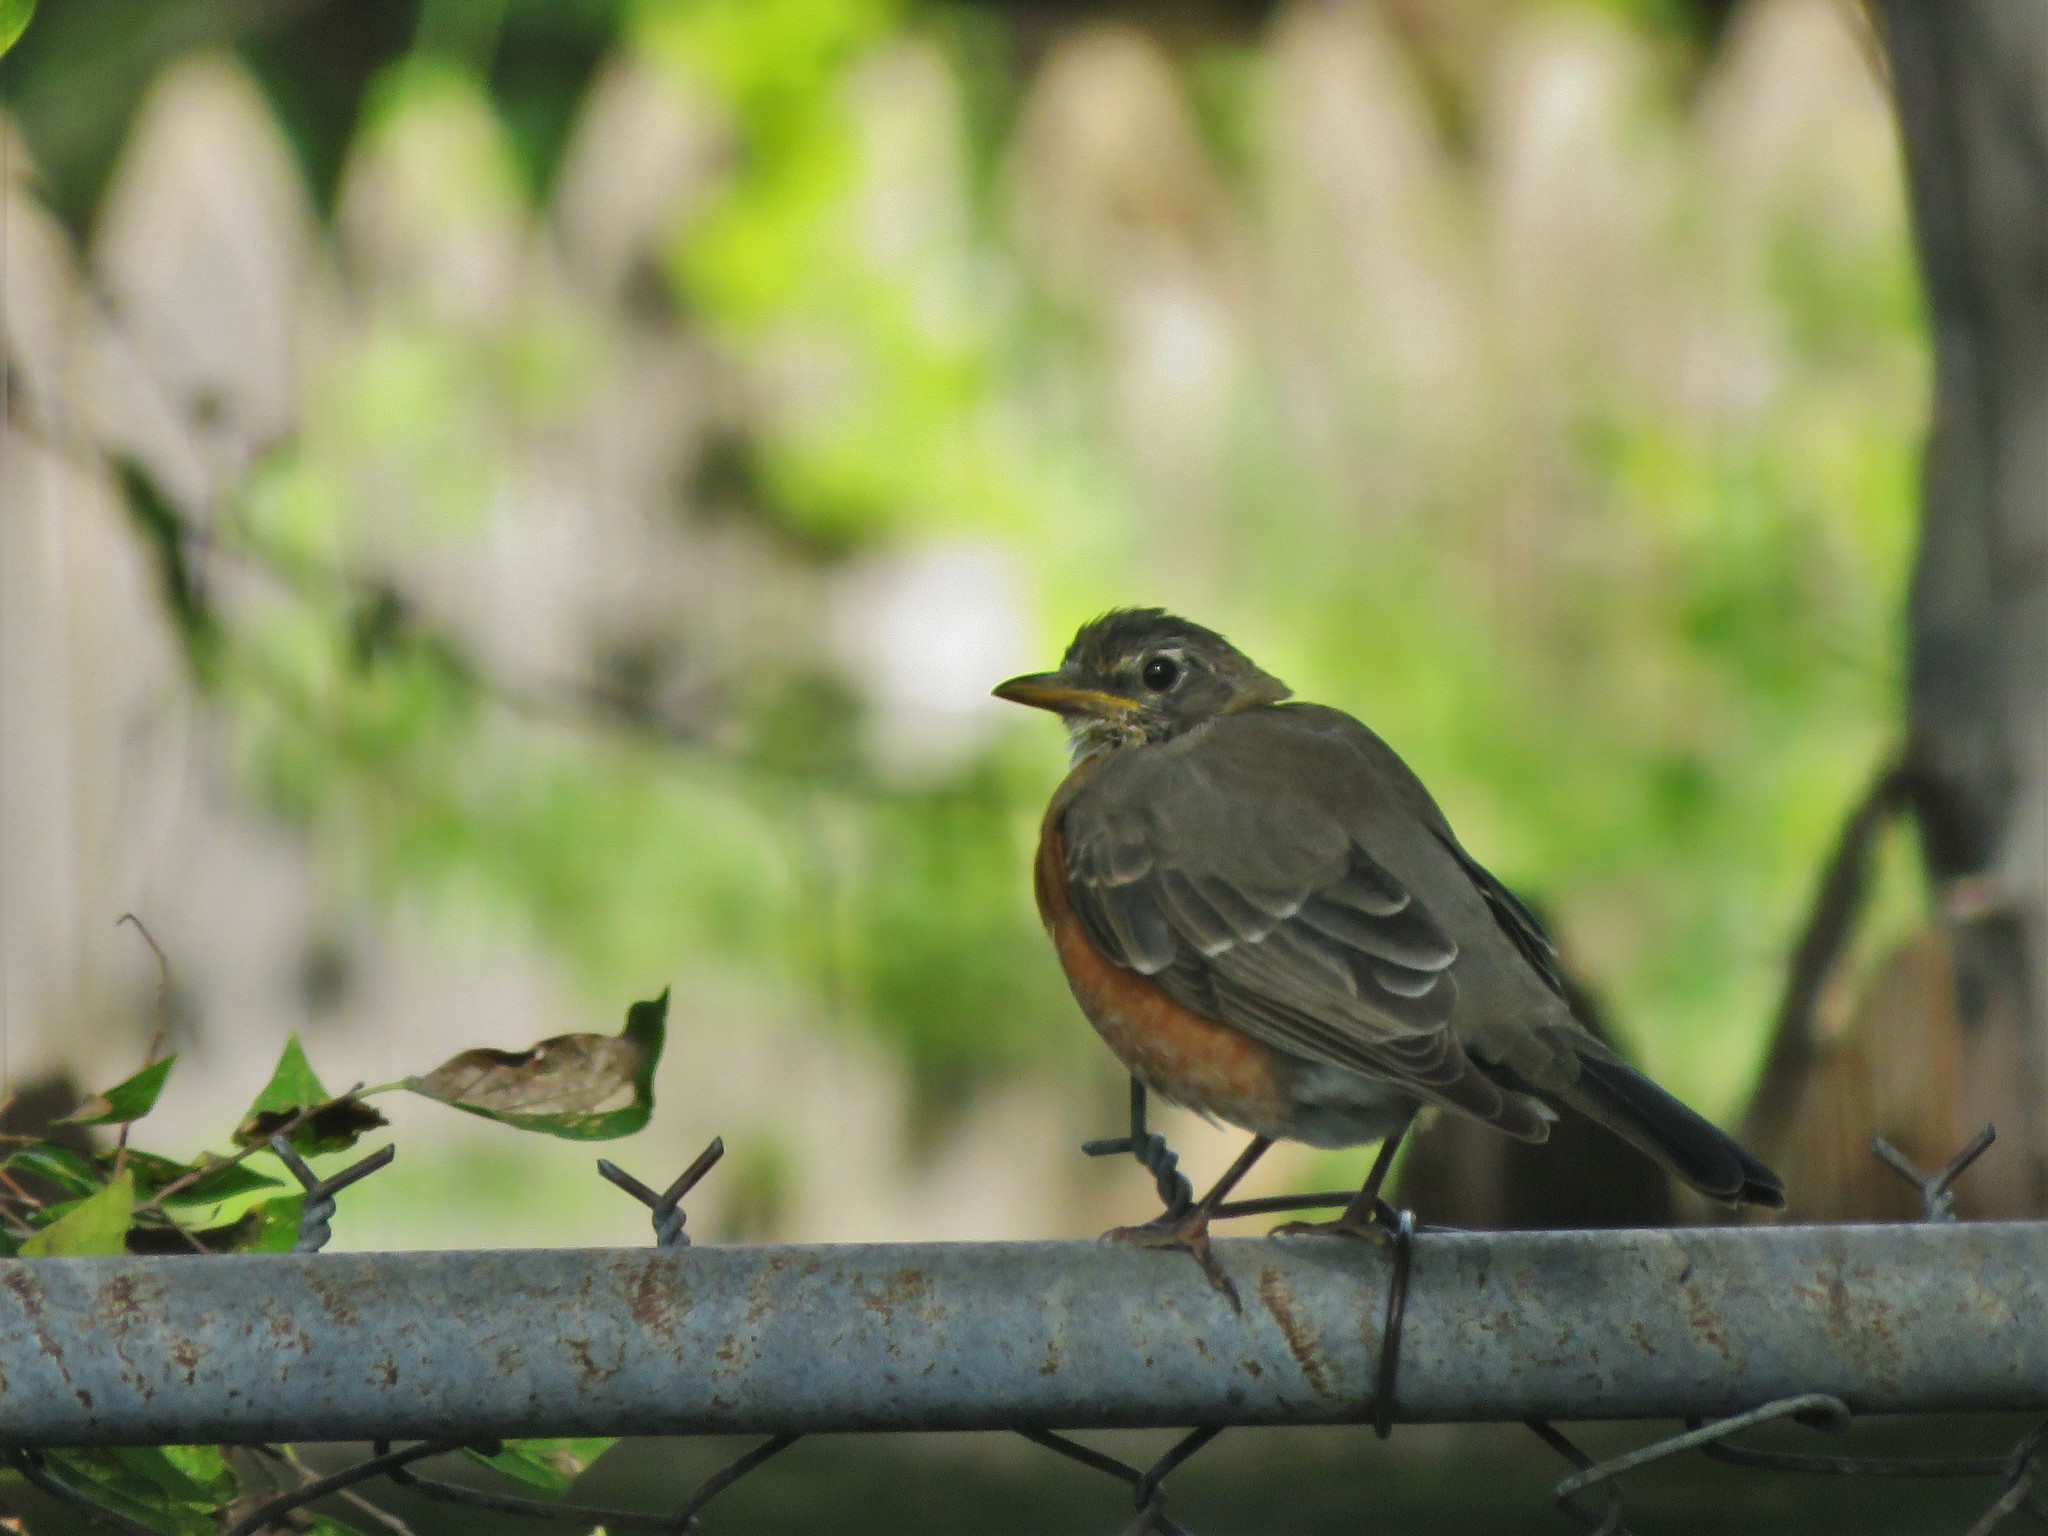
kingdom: Animalia
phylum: Chordata
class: Aves
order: Passeriformes
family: Turdidae
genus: Turdus
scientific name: Turdus migratorius
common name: American robin
